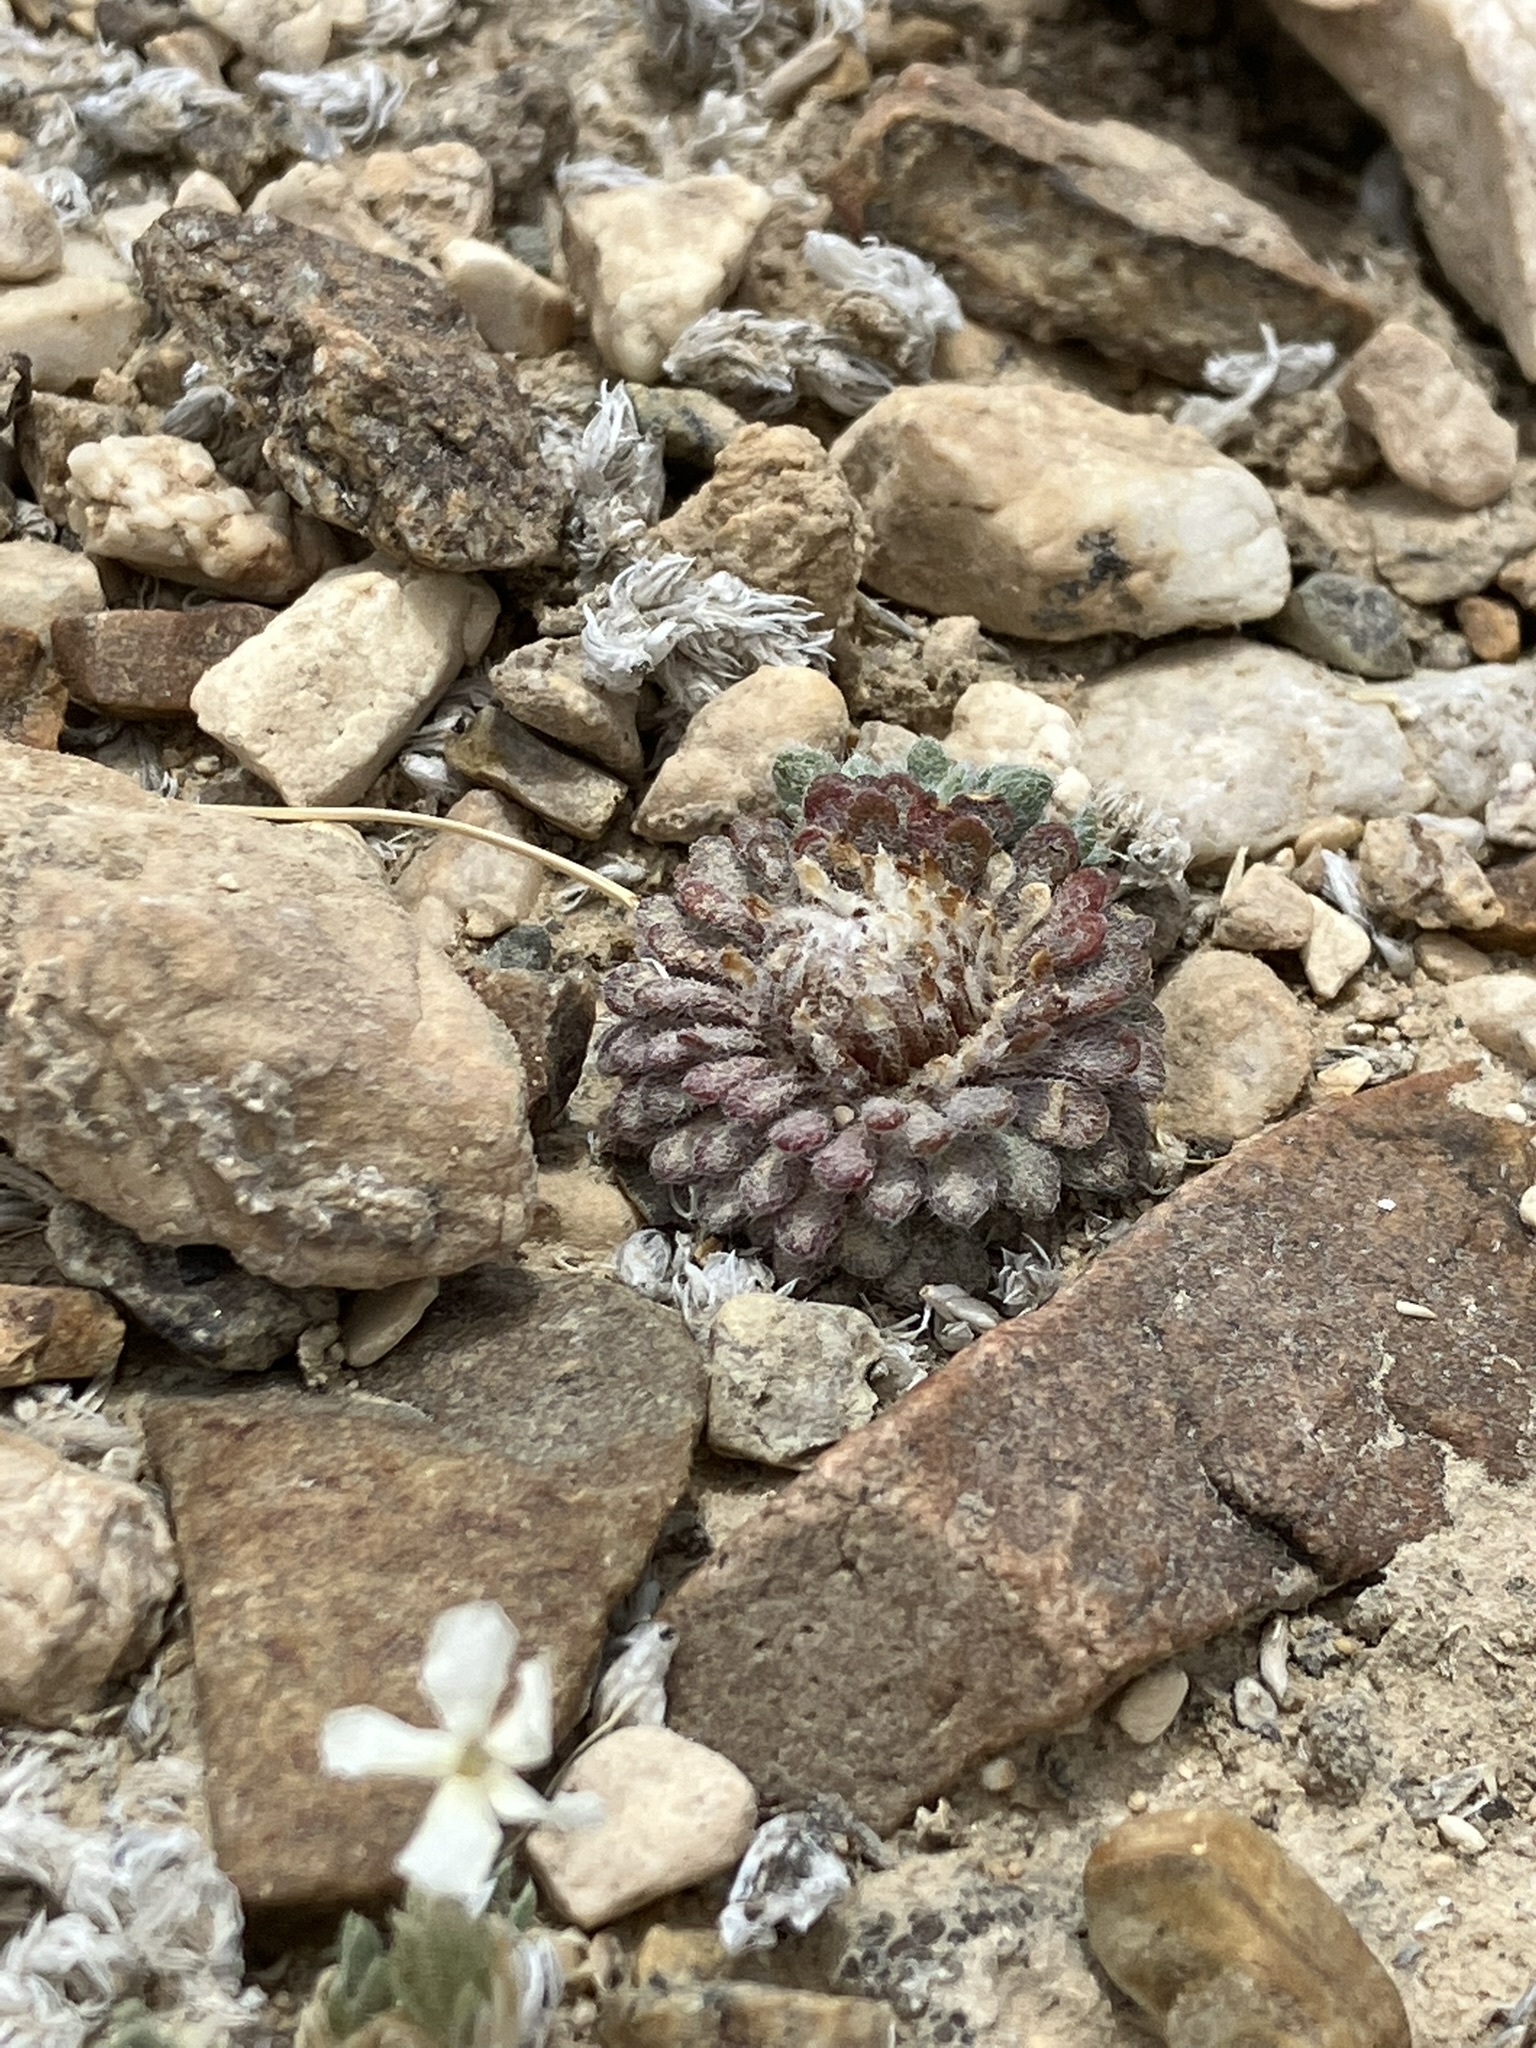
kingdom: Plantae
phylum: Tracheophyta
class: Magnoliopsida
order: Asterales
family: Asteraceae
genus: Townsendia
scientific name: Townsendia condensata
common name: Alpine townsend daisy
